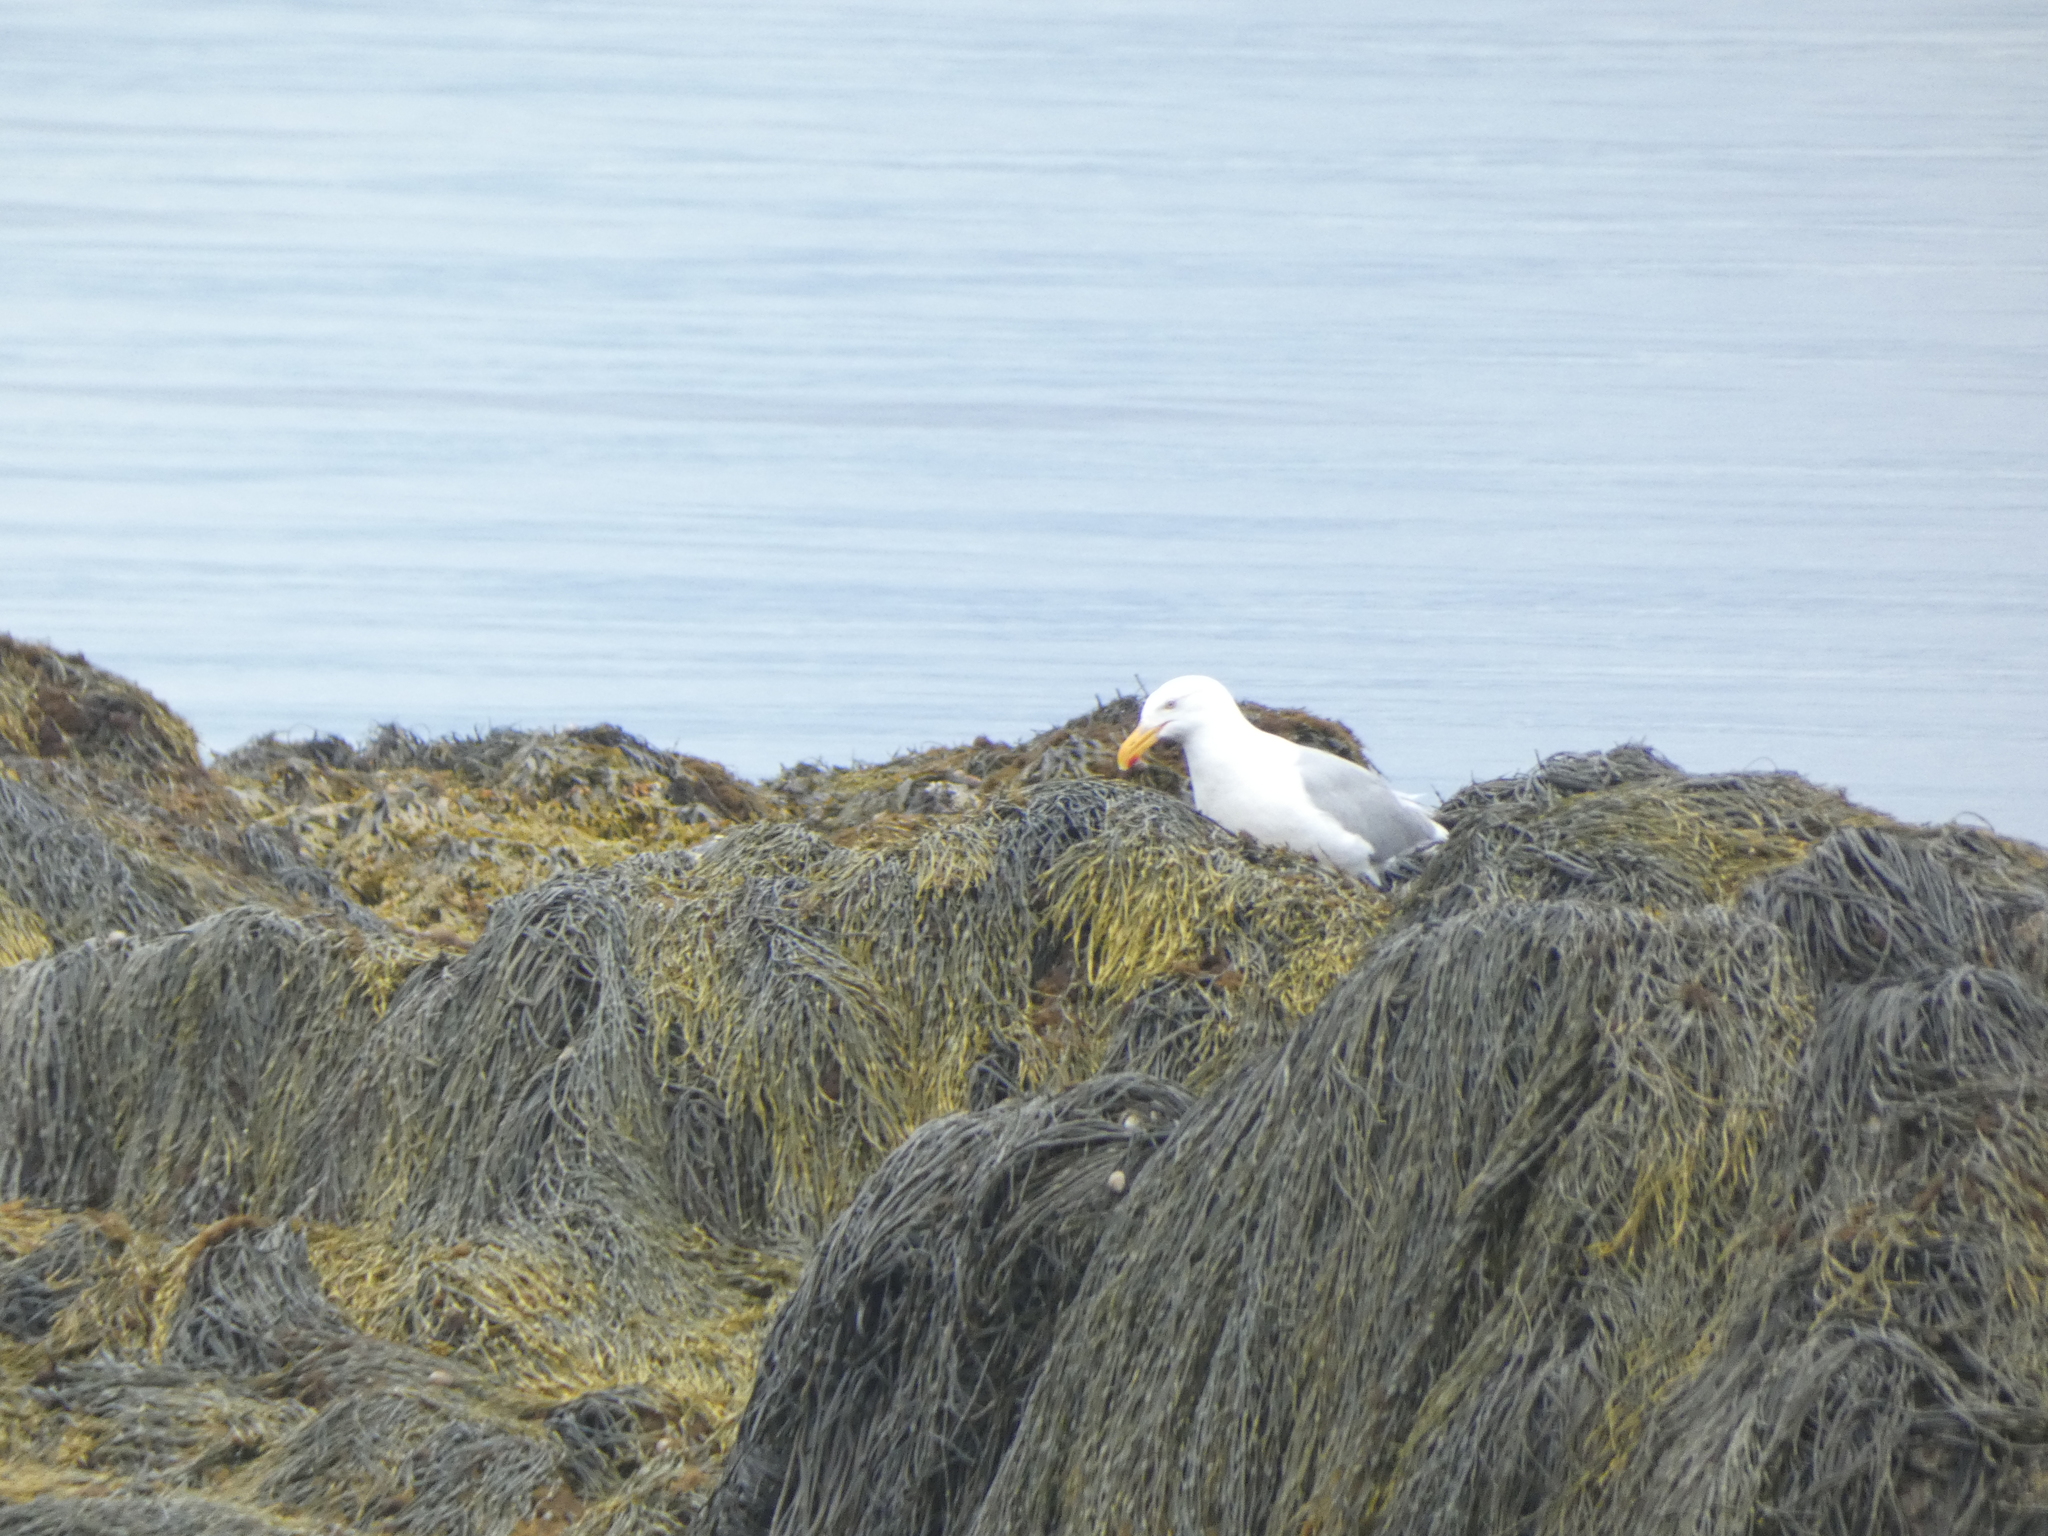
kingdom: Animalia
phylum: Chordata
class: Aves
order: Charadriiformes
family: Laridae
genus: Larus
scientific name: Larus argentatus
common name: Herring gull
